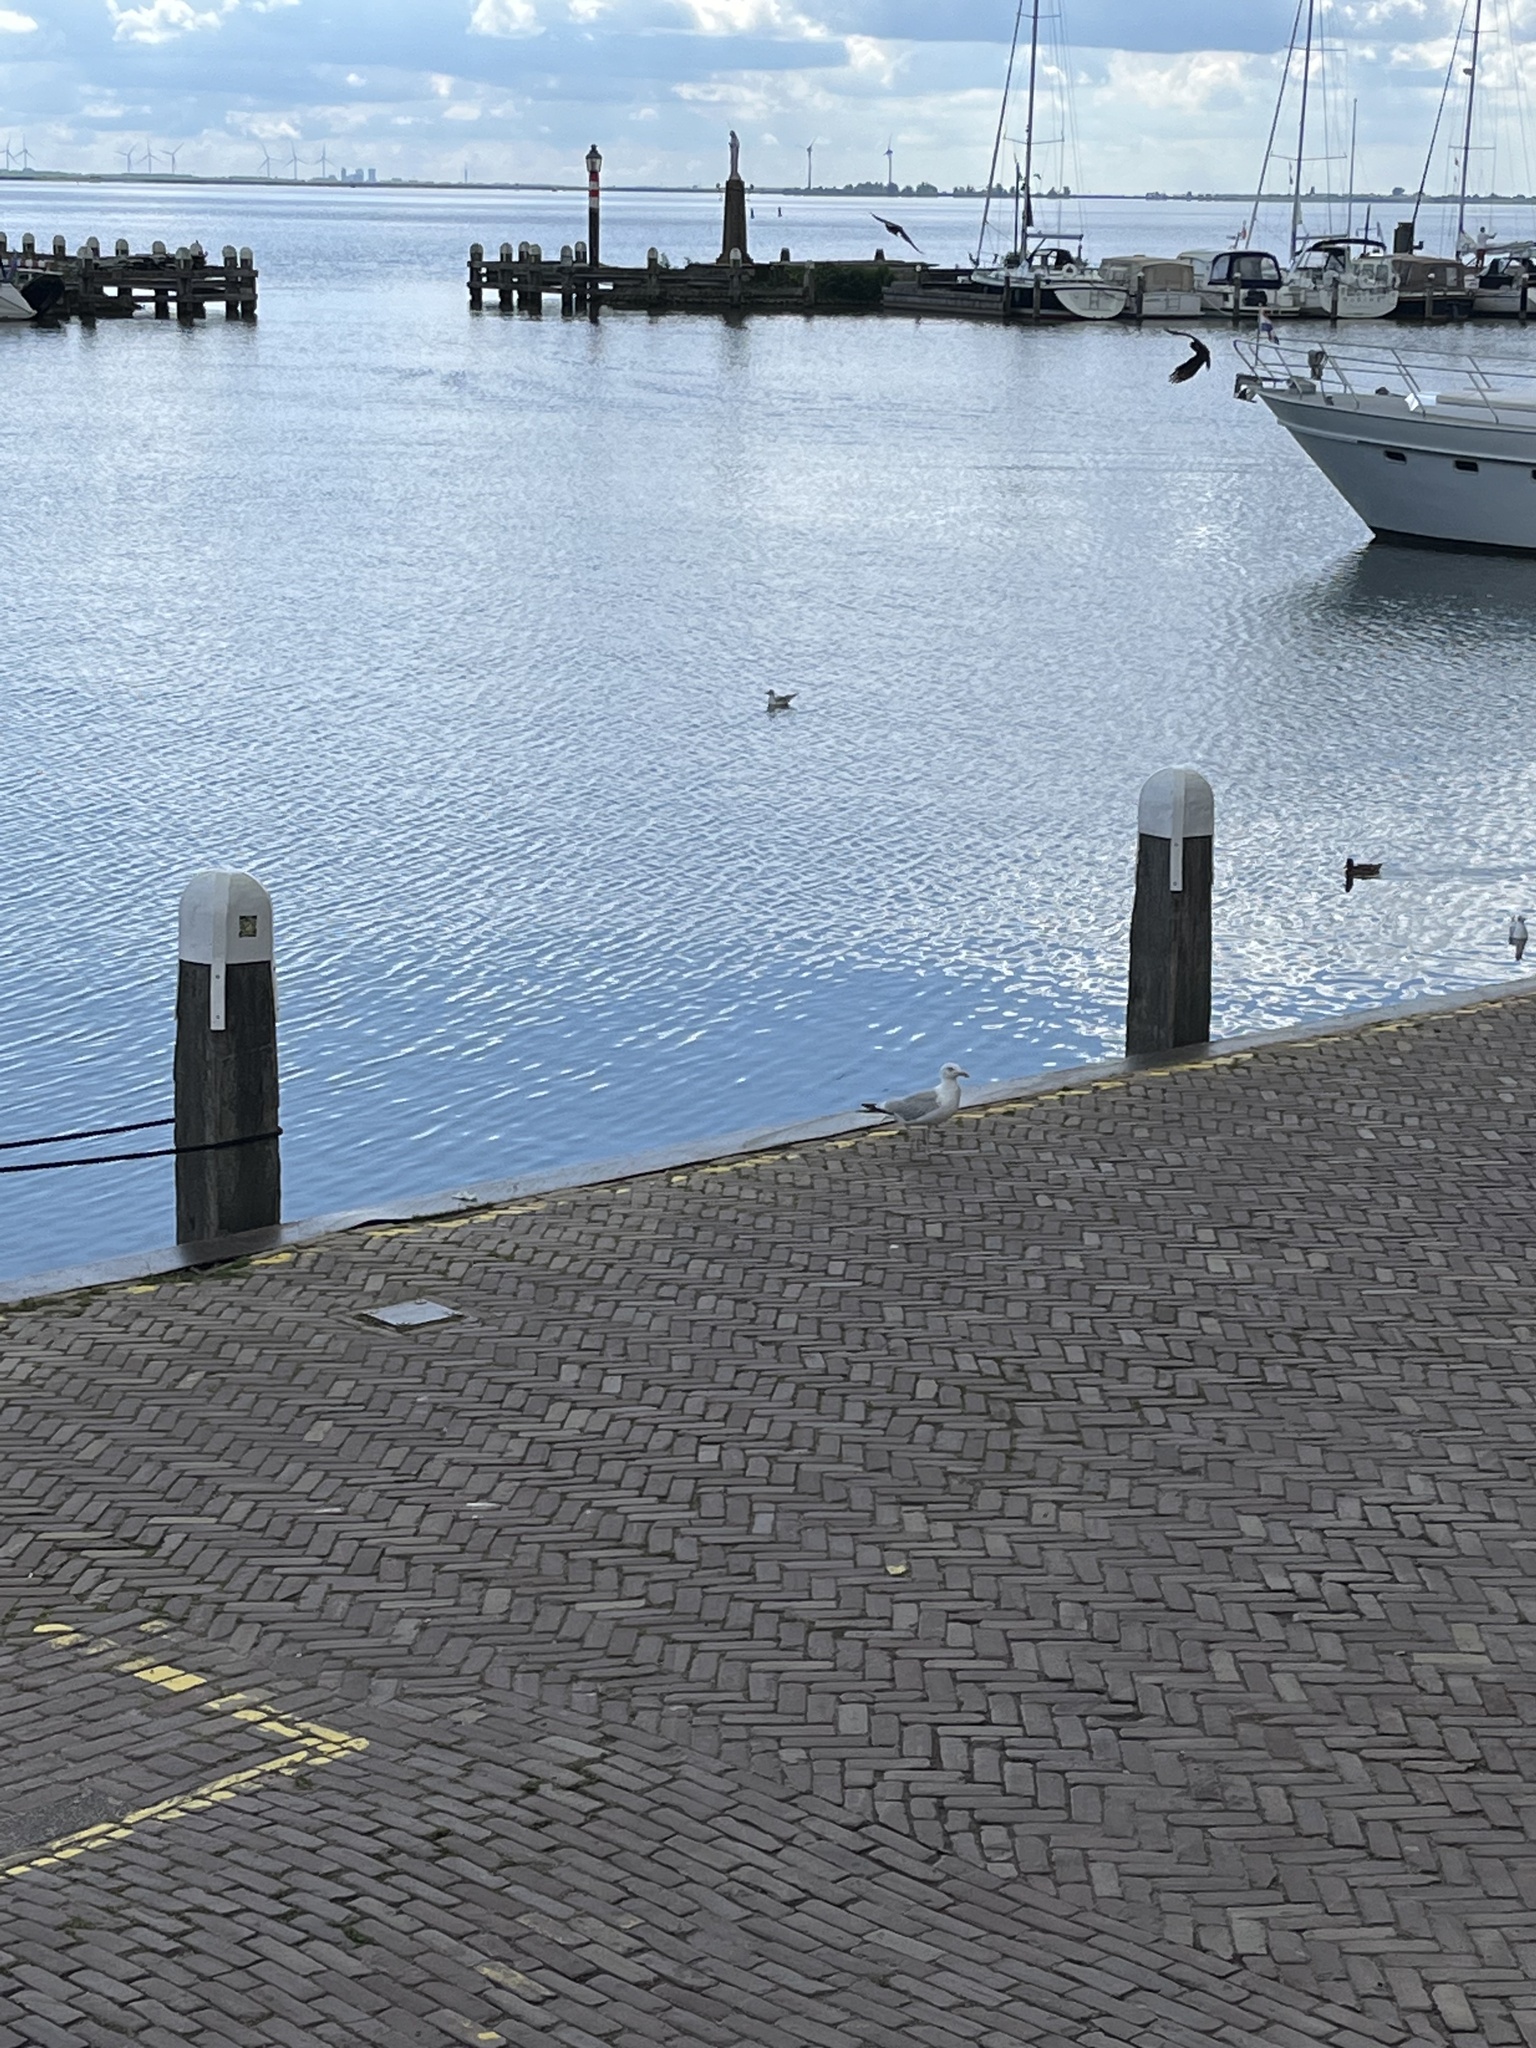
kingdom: Animalia
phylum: Chordata
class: Aves
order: Charadriiformes
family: Laridae
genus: Larus
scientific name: Larus argentatus
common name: Herring gull
